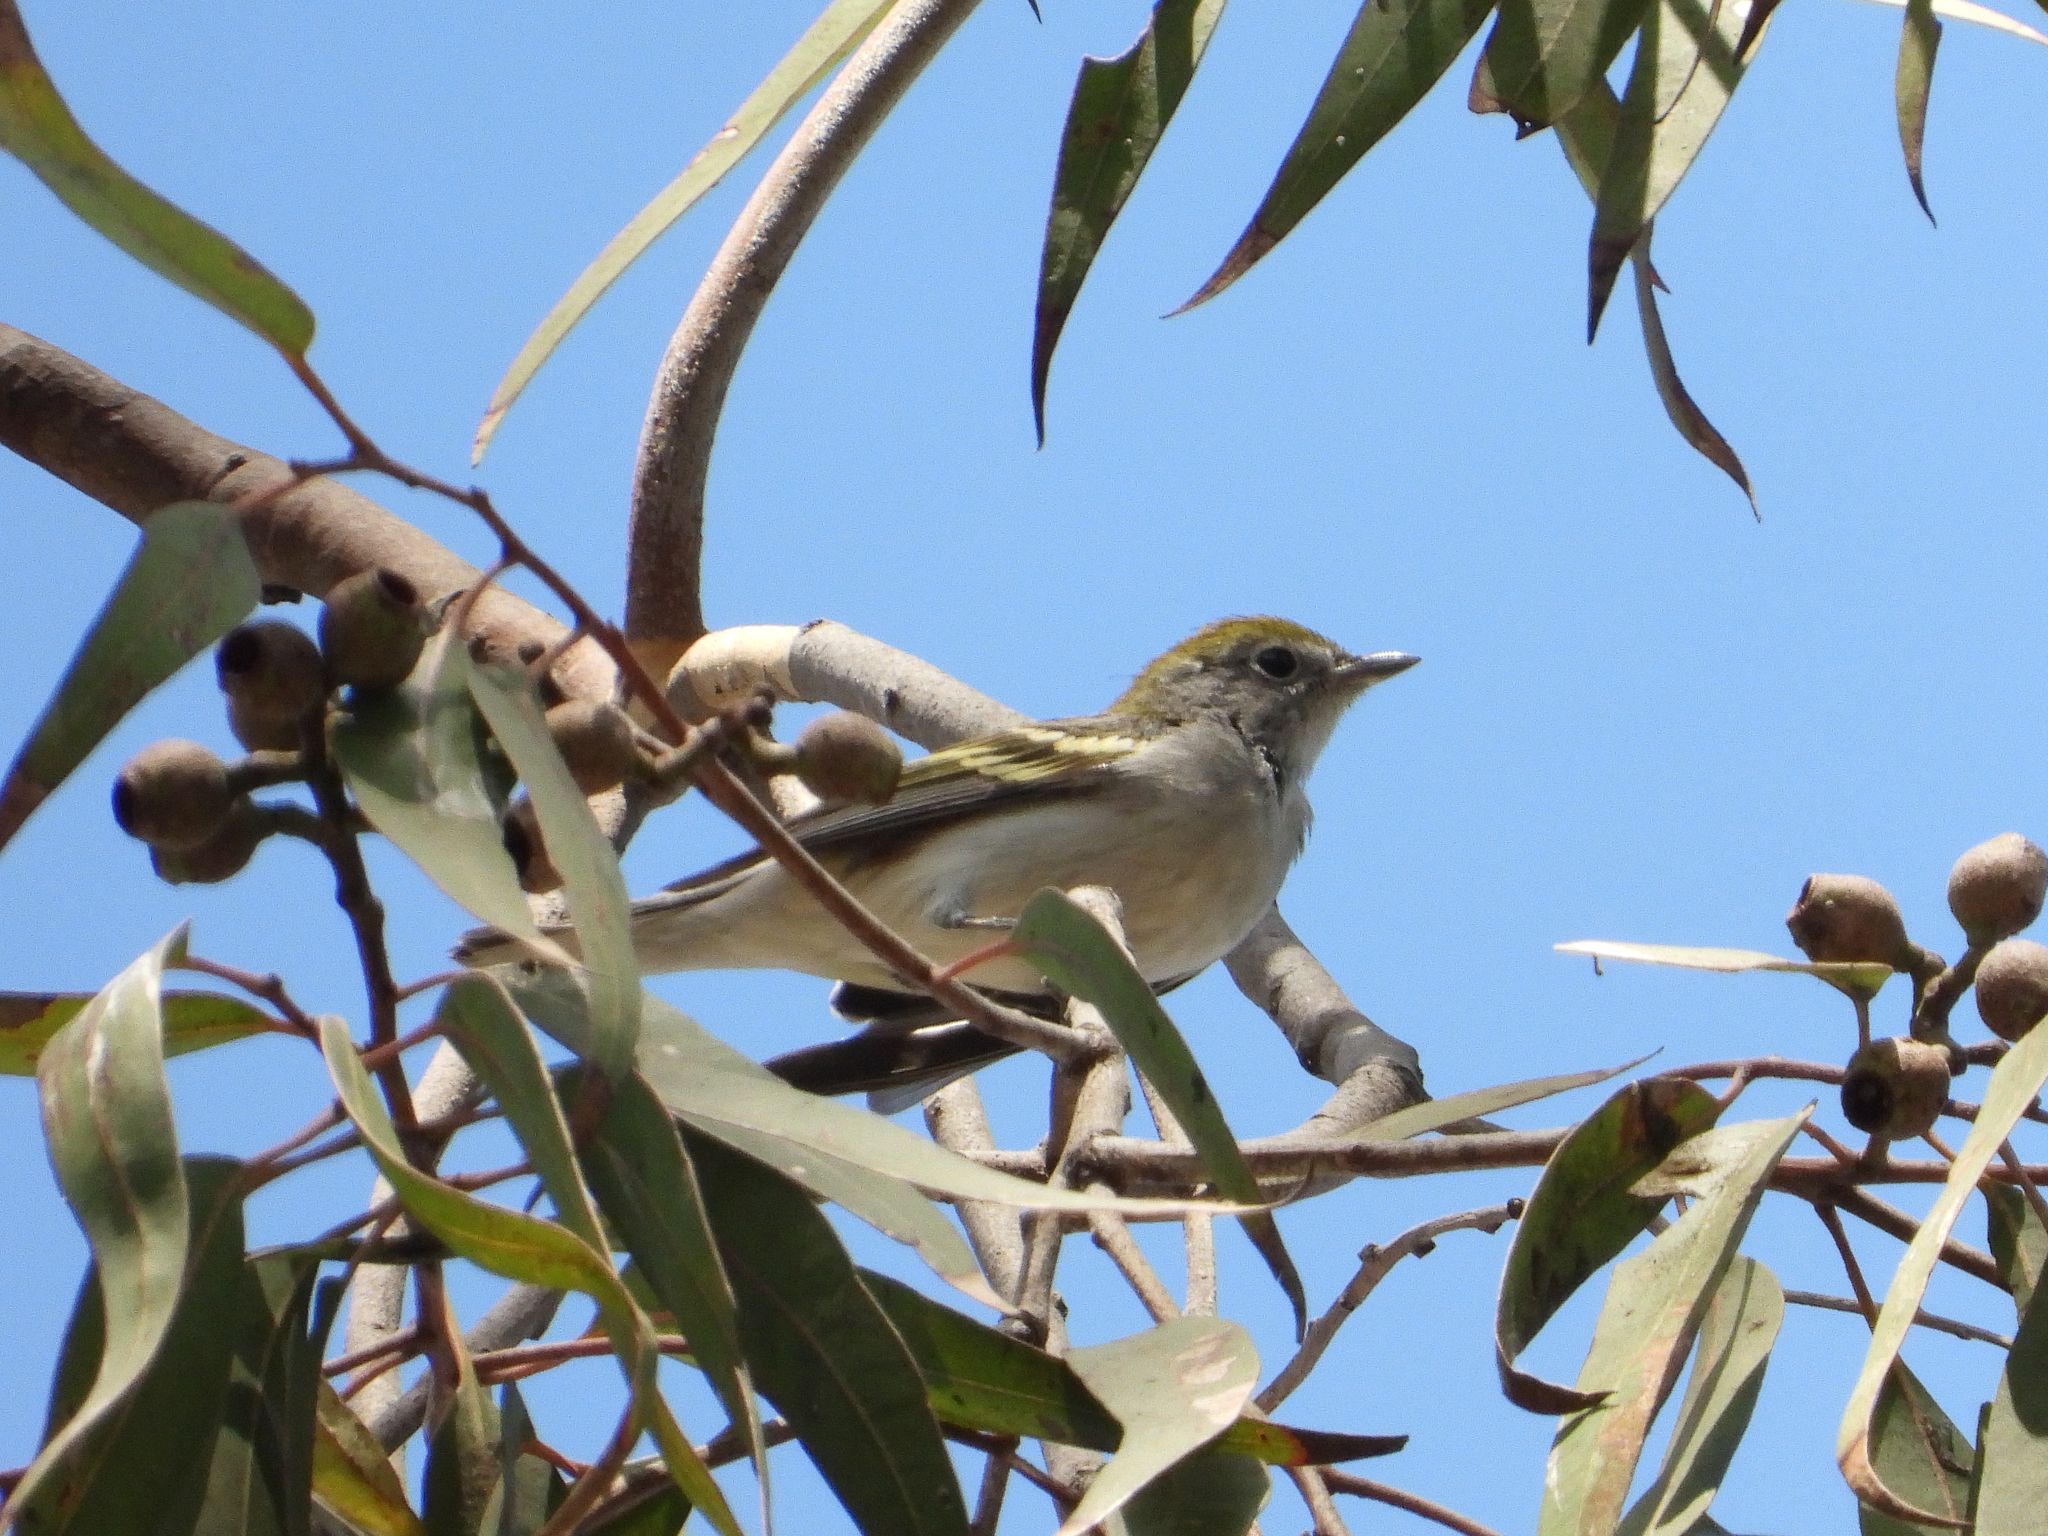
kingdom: Animalia
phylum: Chordata
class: Aves
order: Passeriformes
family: Parulidae
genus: Setophaga
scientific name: Setophaga pensylvanica
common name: Chestnut-sided warbler
